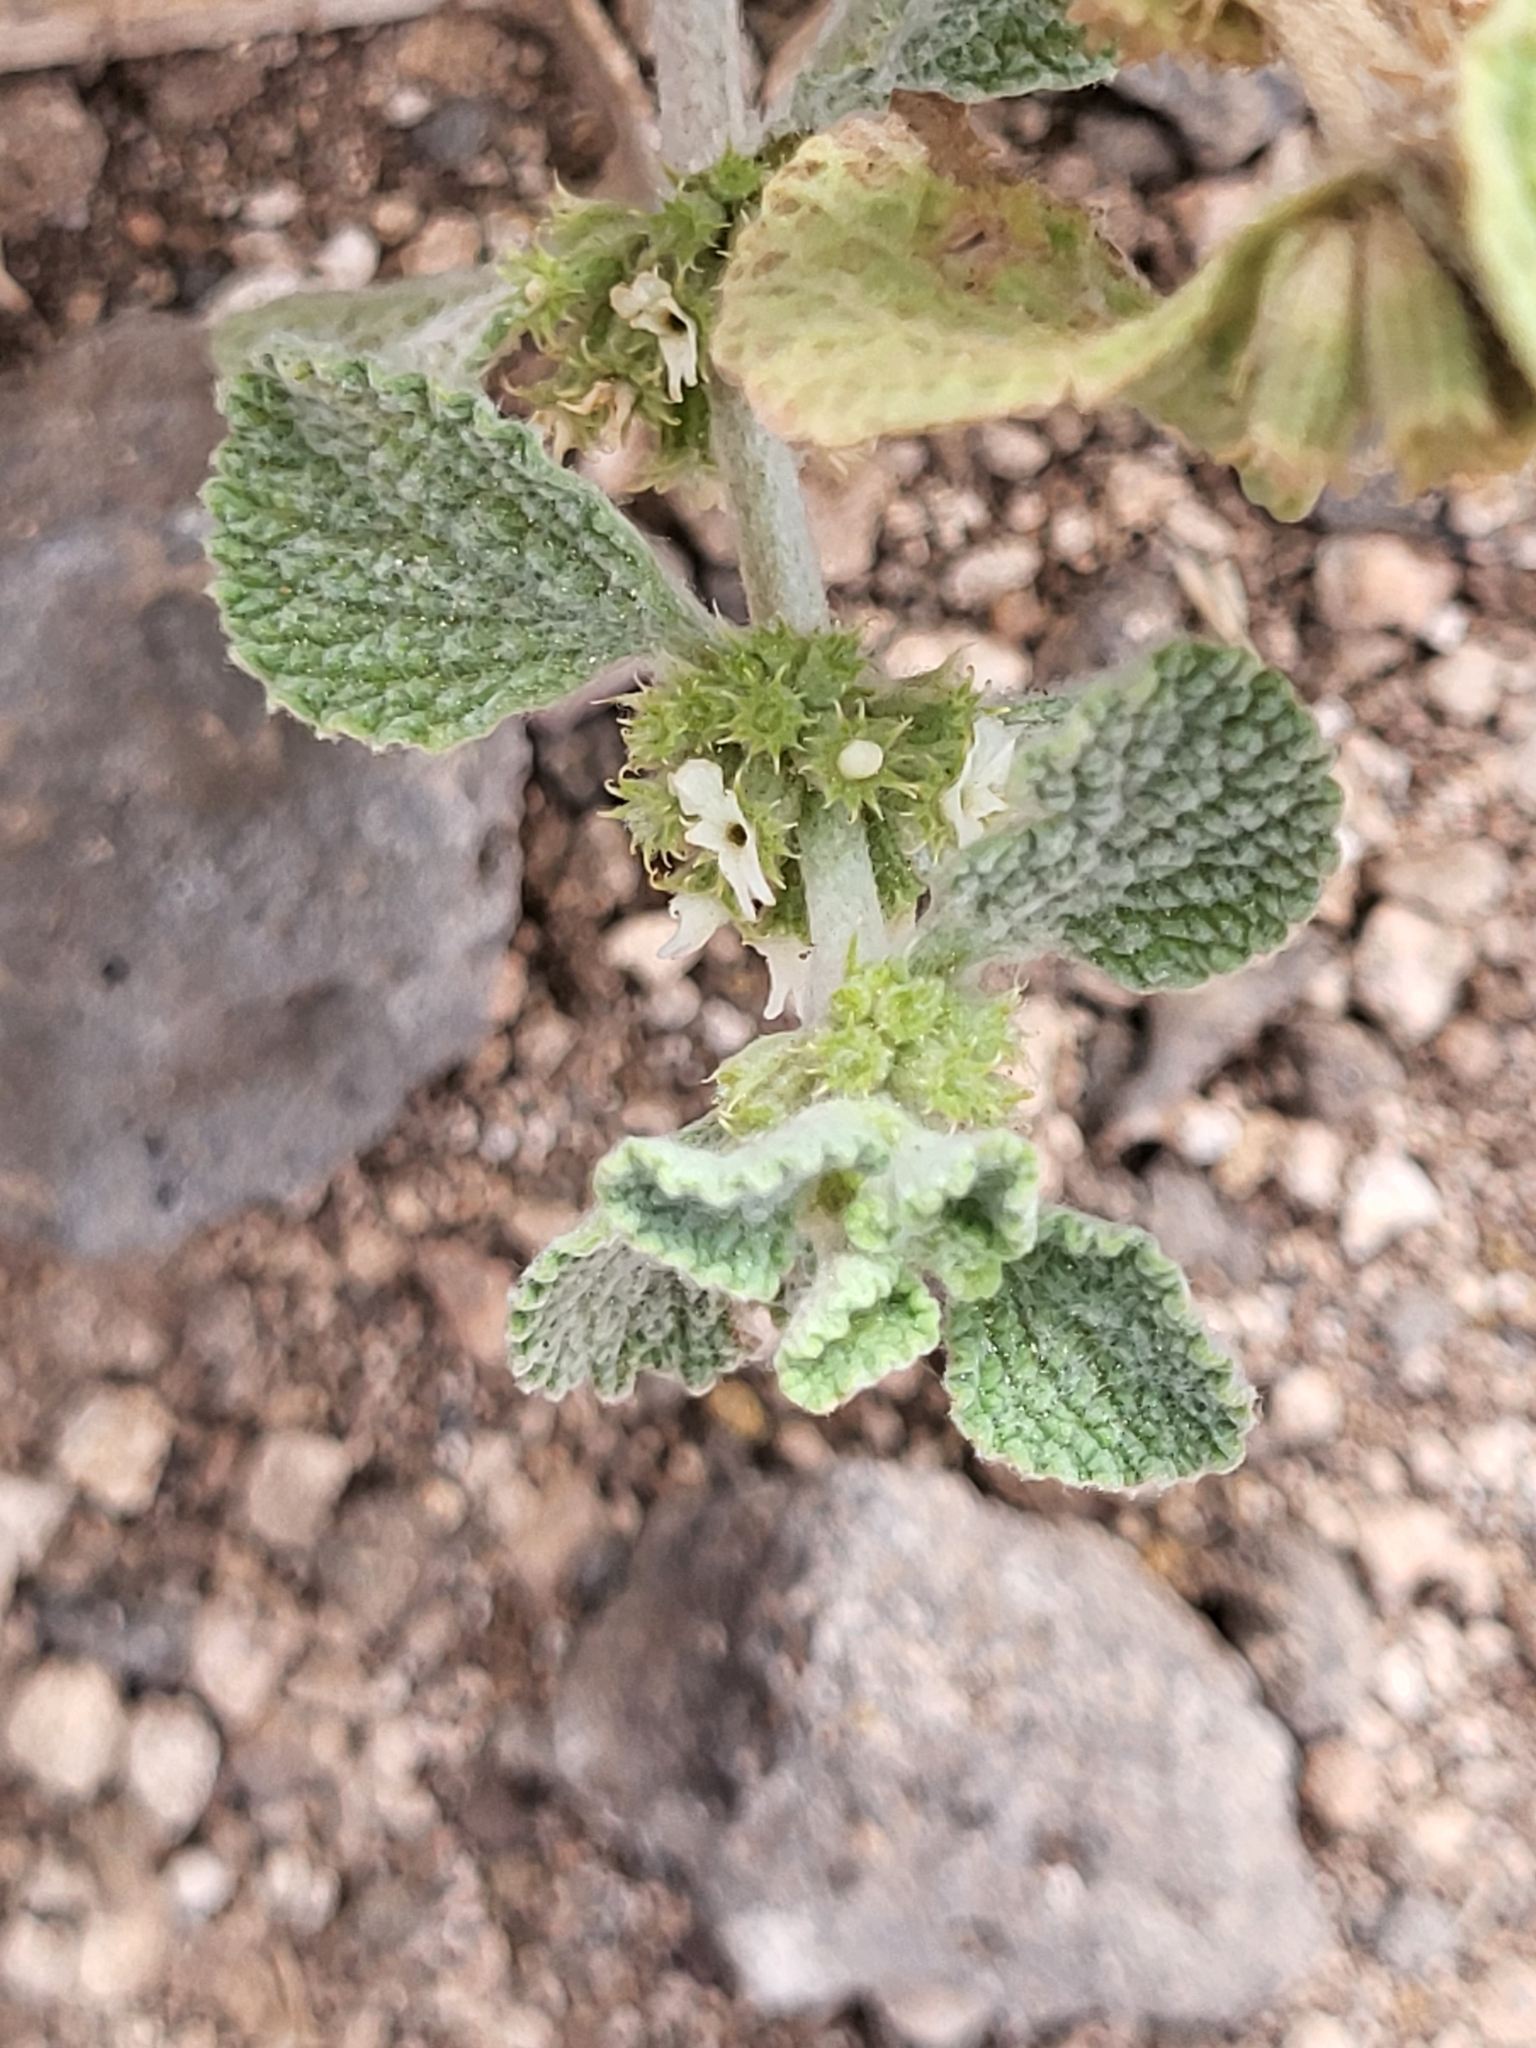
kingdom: Plantae
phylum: Tracheophyta
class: Magnoliopsida
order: Lamiales
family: Lamiaceae
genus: Marrubium
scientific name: Marrubium vulgare
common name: Horehound
